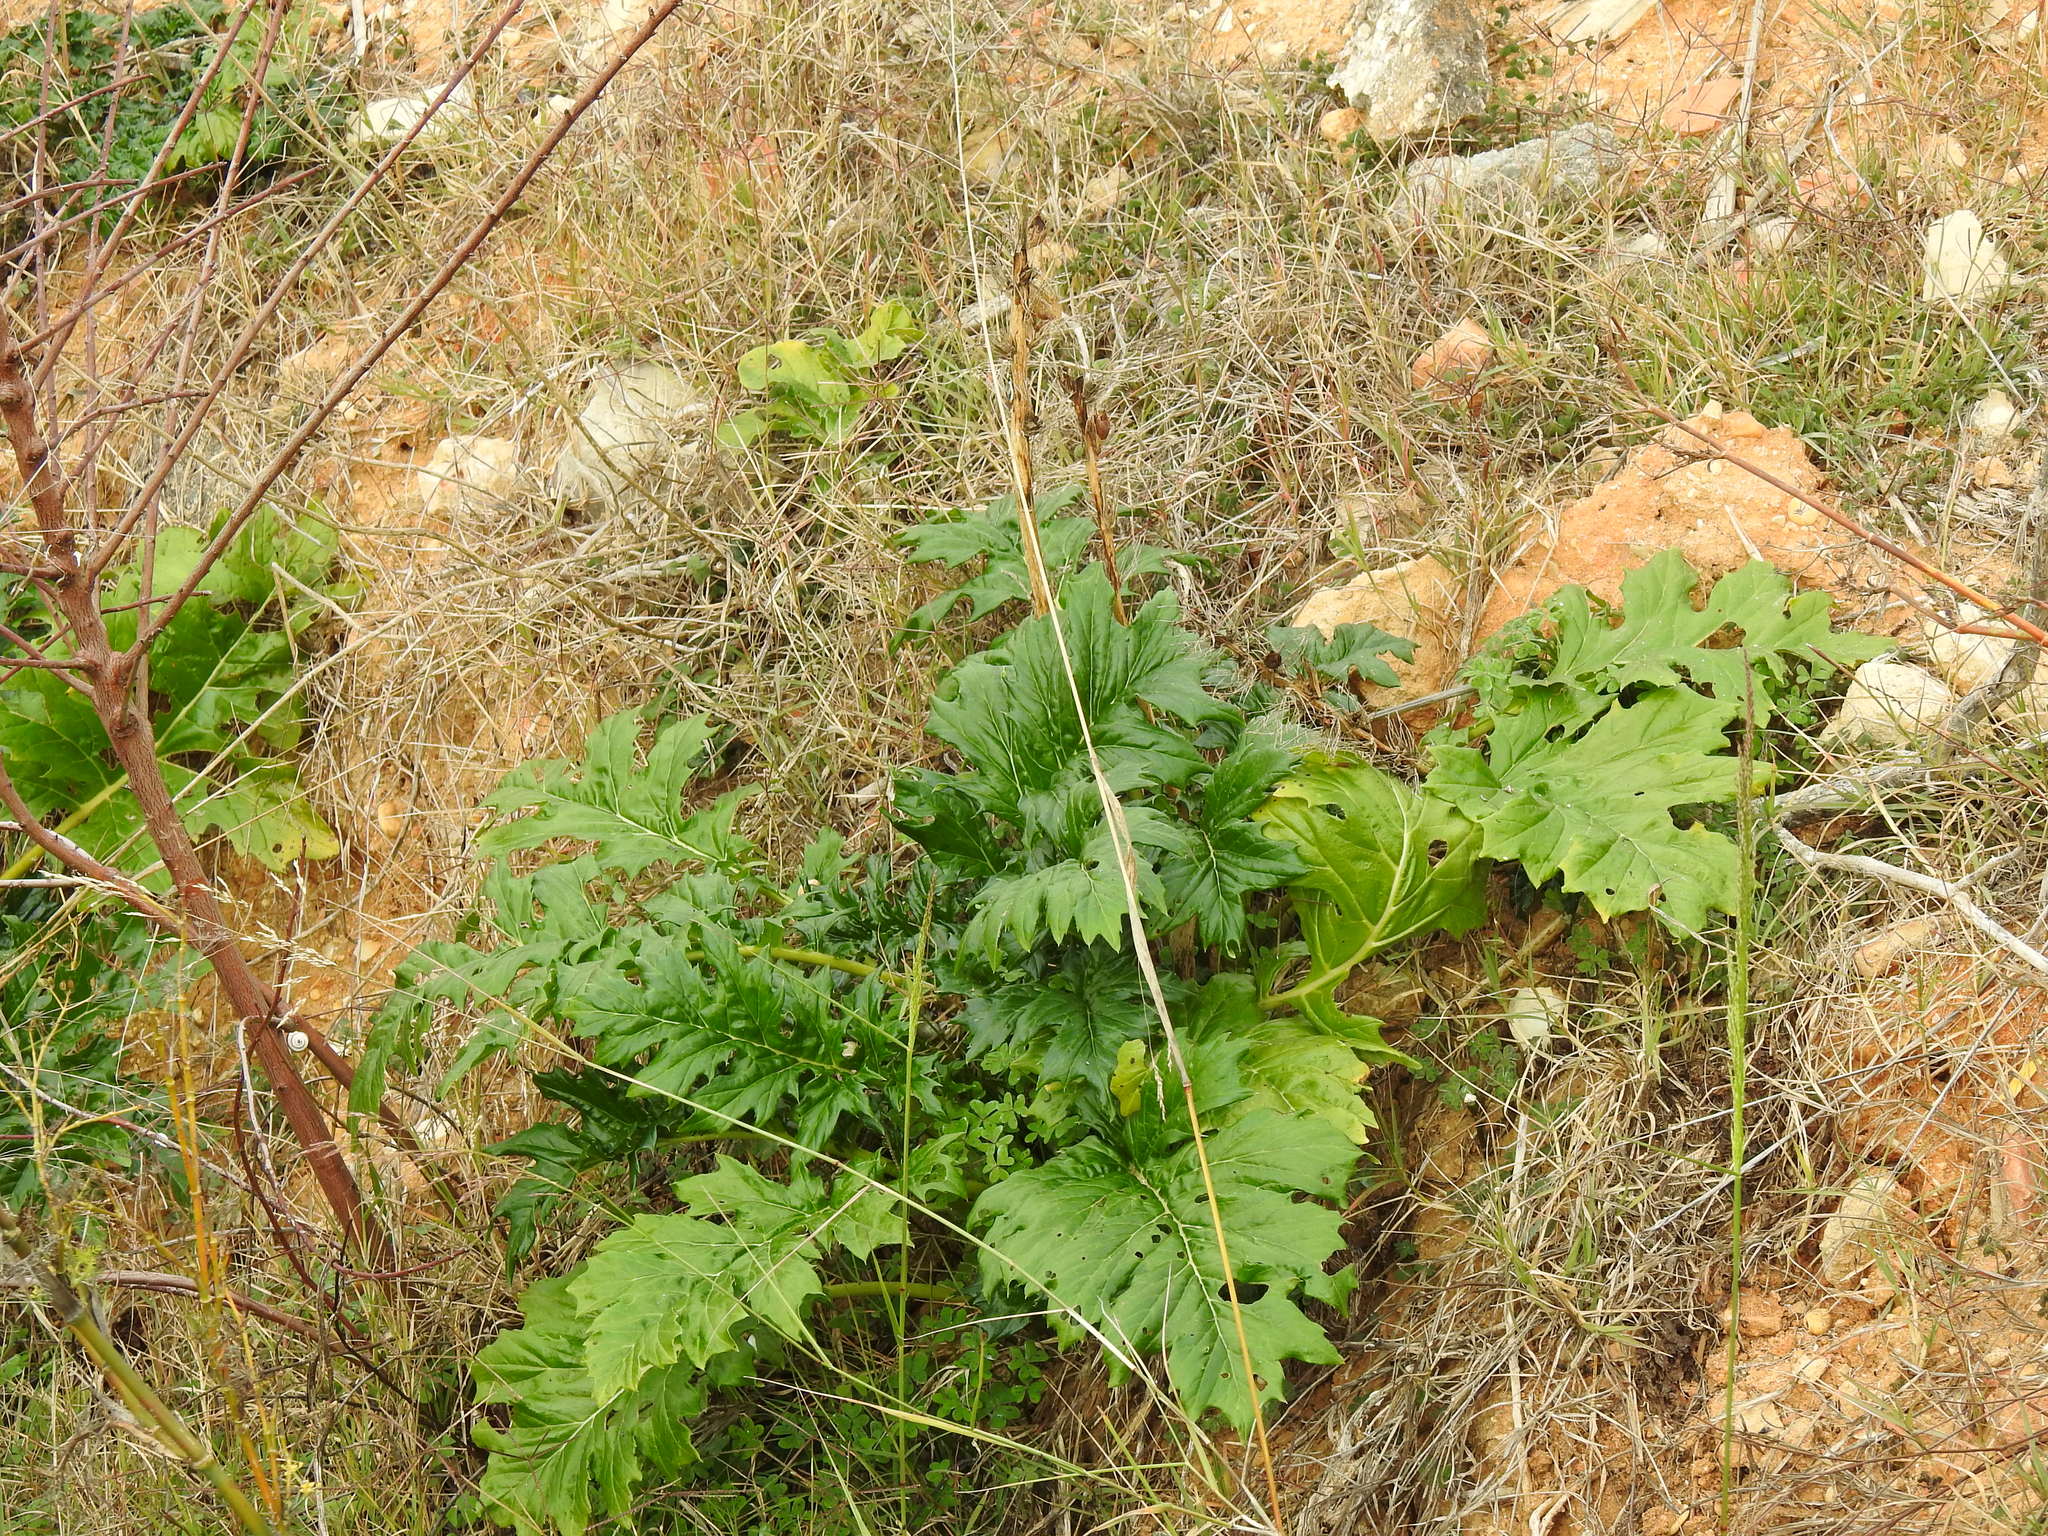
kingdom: Plantae
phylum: Tracheophyta
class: Magnoliopsida
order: Lamiales
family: Acanthaceae
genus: Acanthus
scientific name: Acanthus mollis
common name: Bear's-breech
